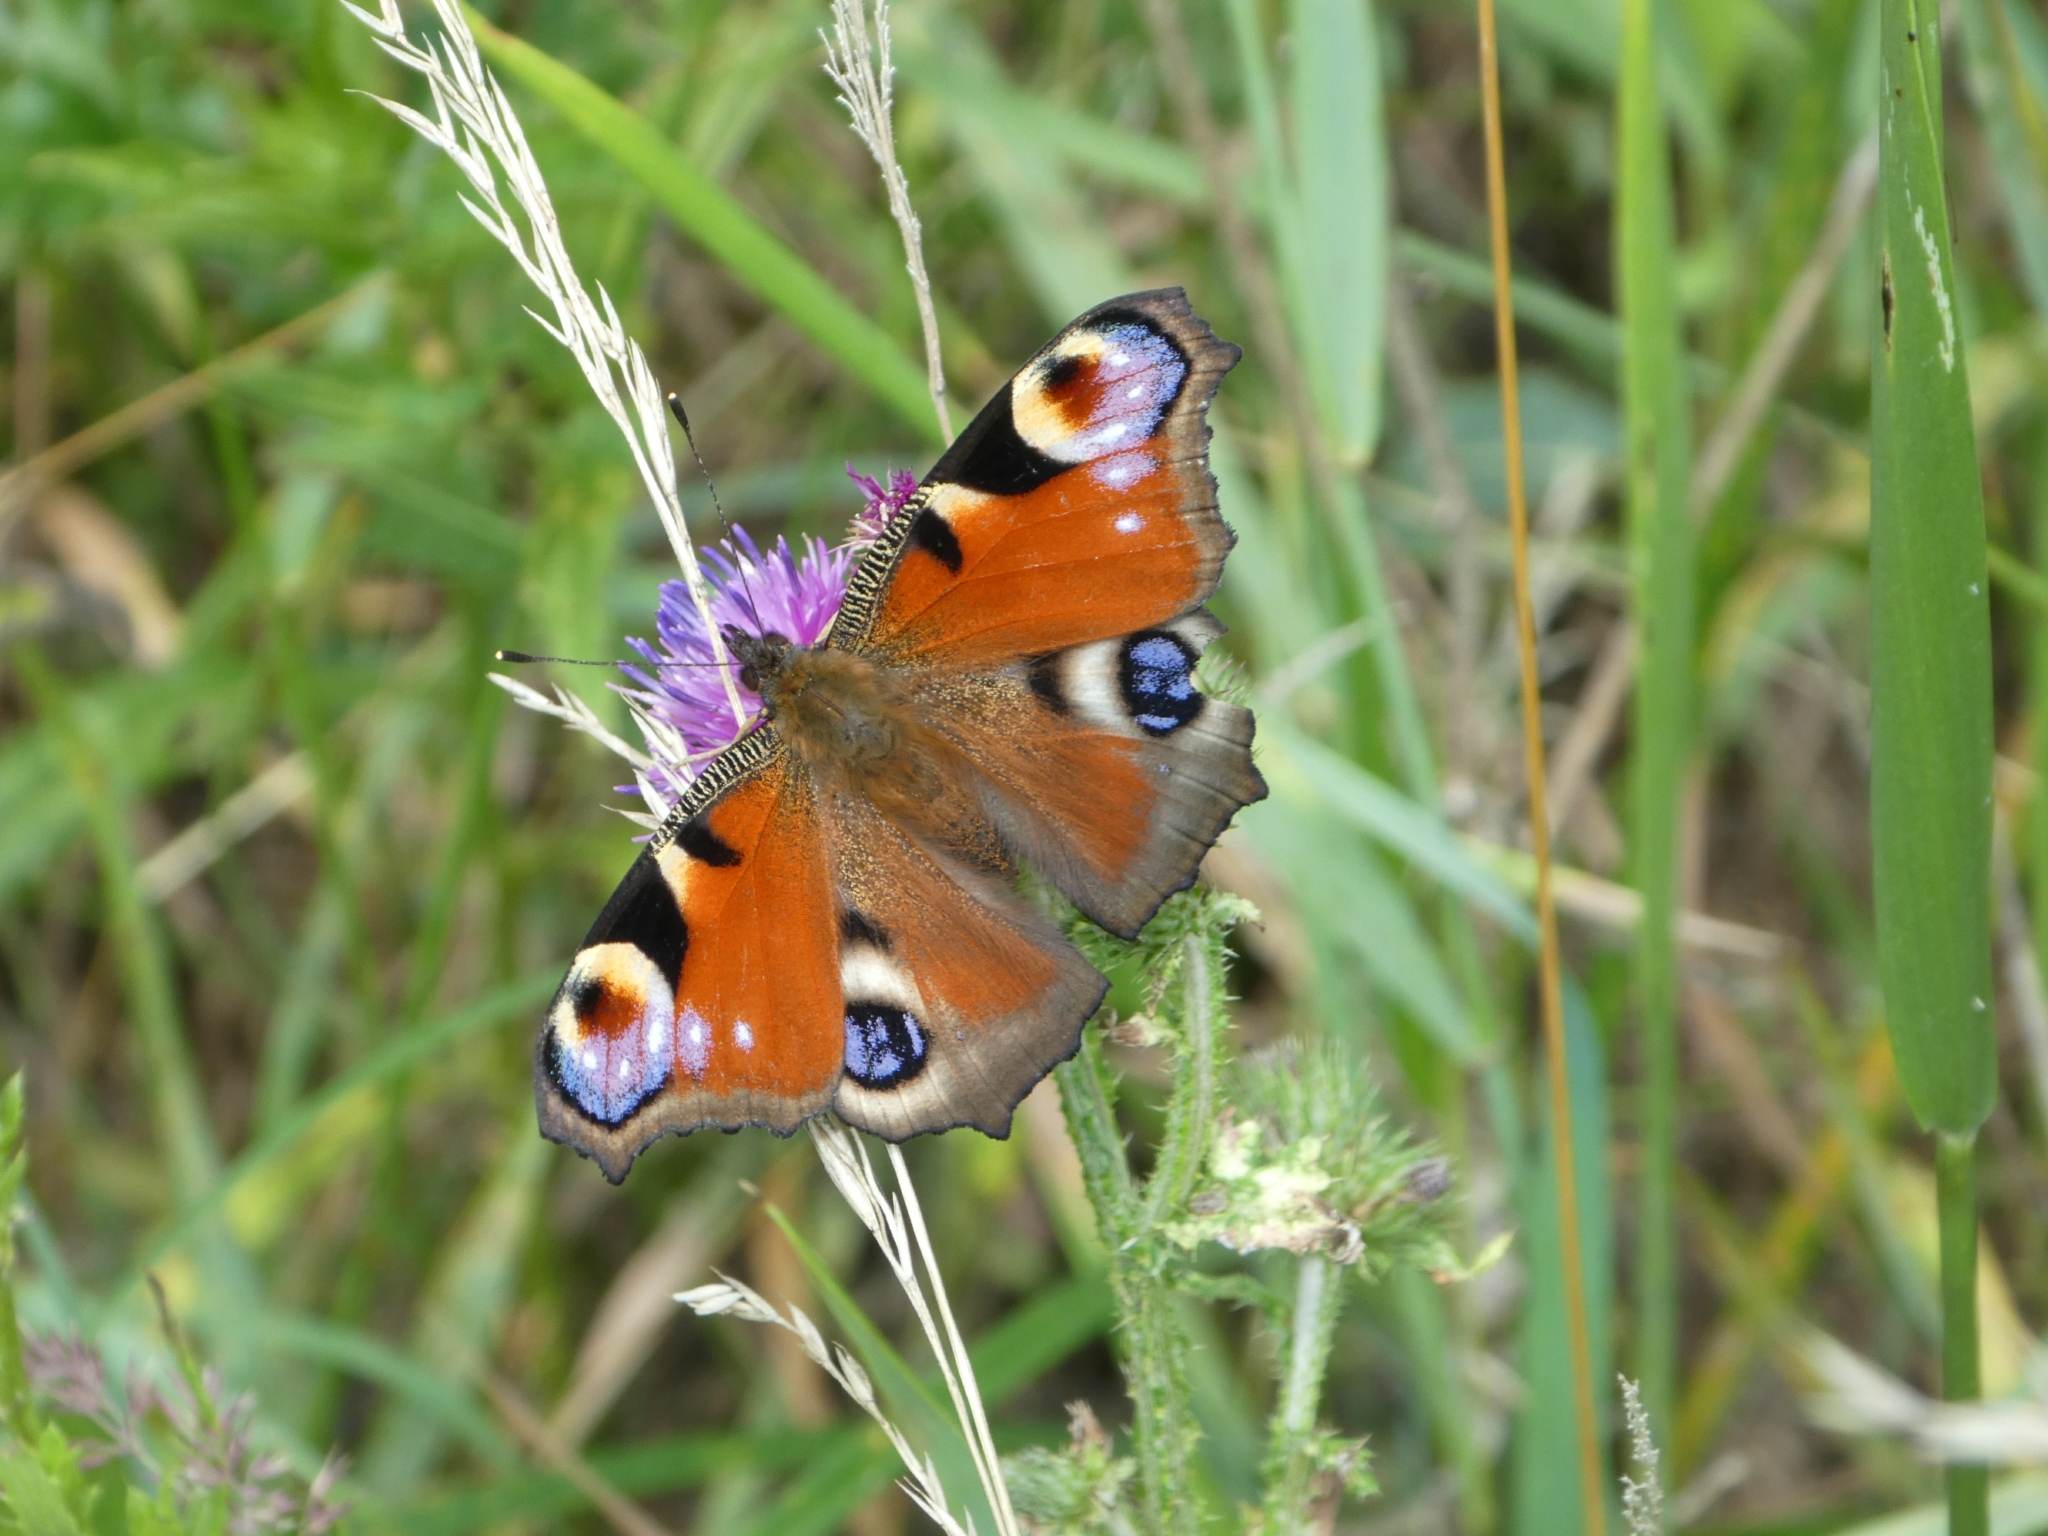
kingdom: Animalia
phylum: Arthropoda
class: Insecta
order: Lepidoptera
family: Nymphalidae
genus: Aglais
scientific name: Aglais io
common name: Peacock
